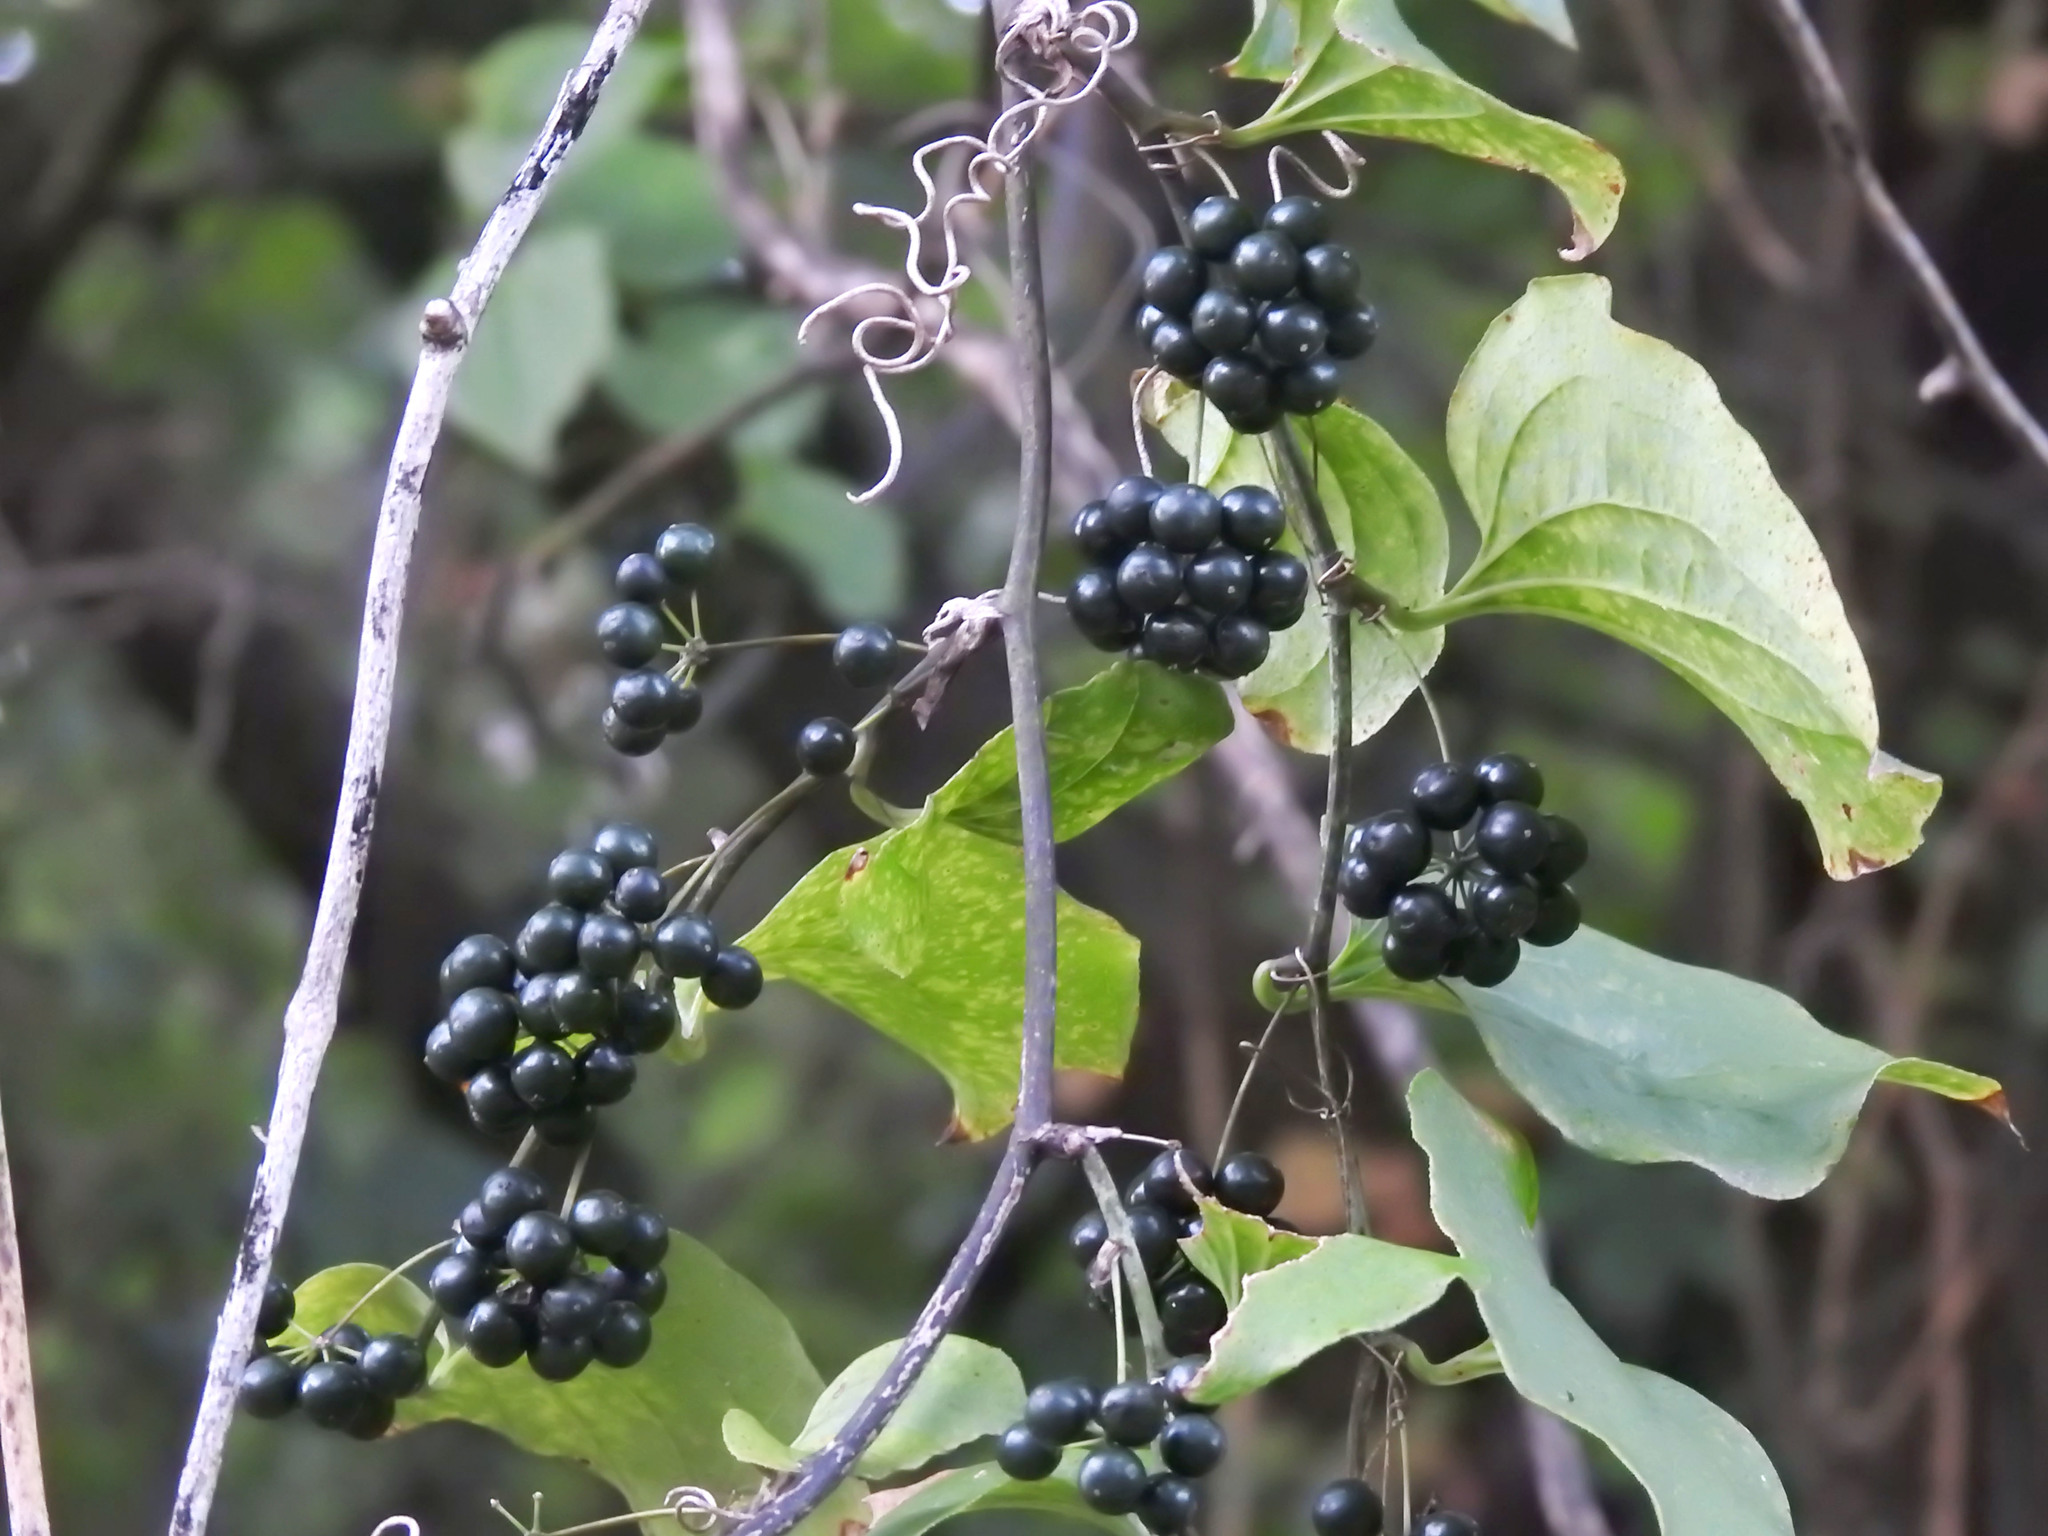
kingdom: Plantae
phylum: Tracheophyta
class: Liliopsida
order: Liliales
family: Smilacaceae
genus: Smilax
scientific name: Smilax tamnoides
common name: Hellfetter
